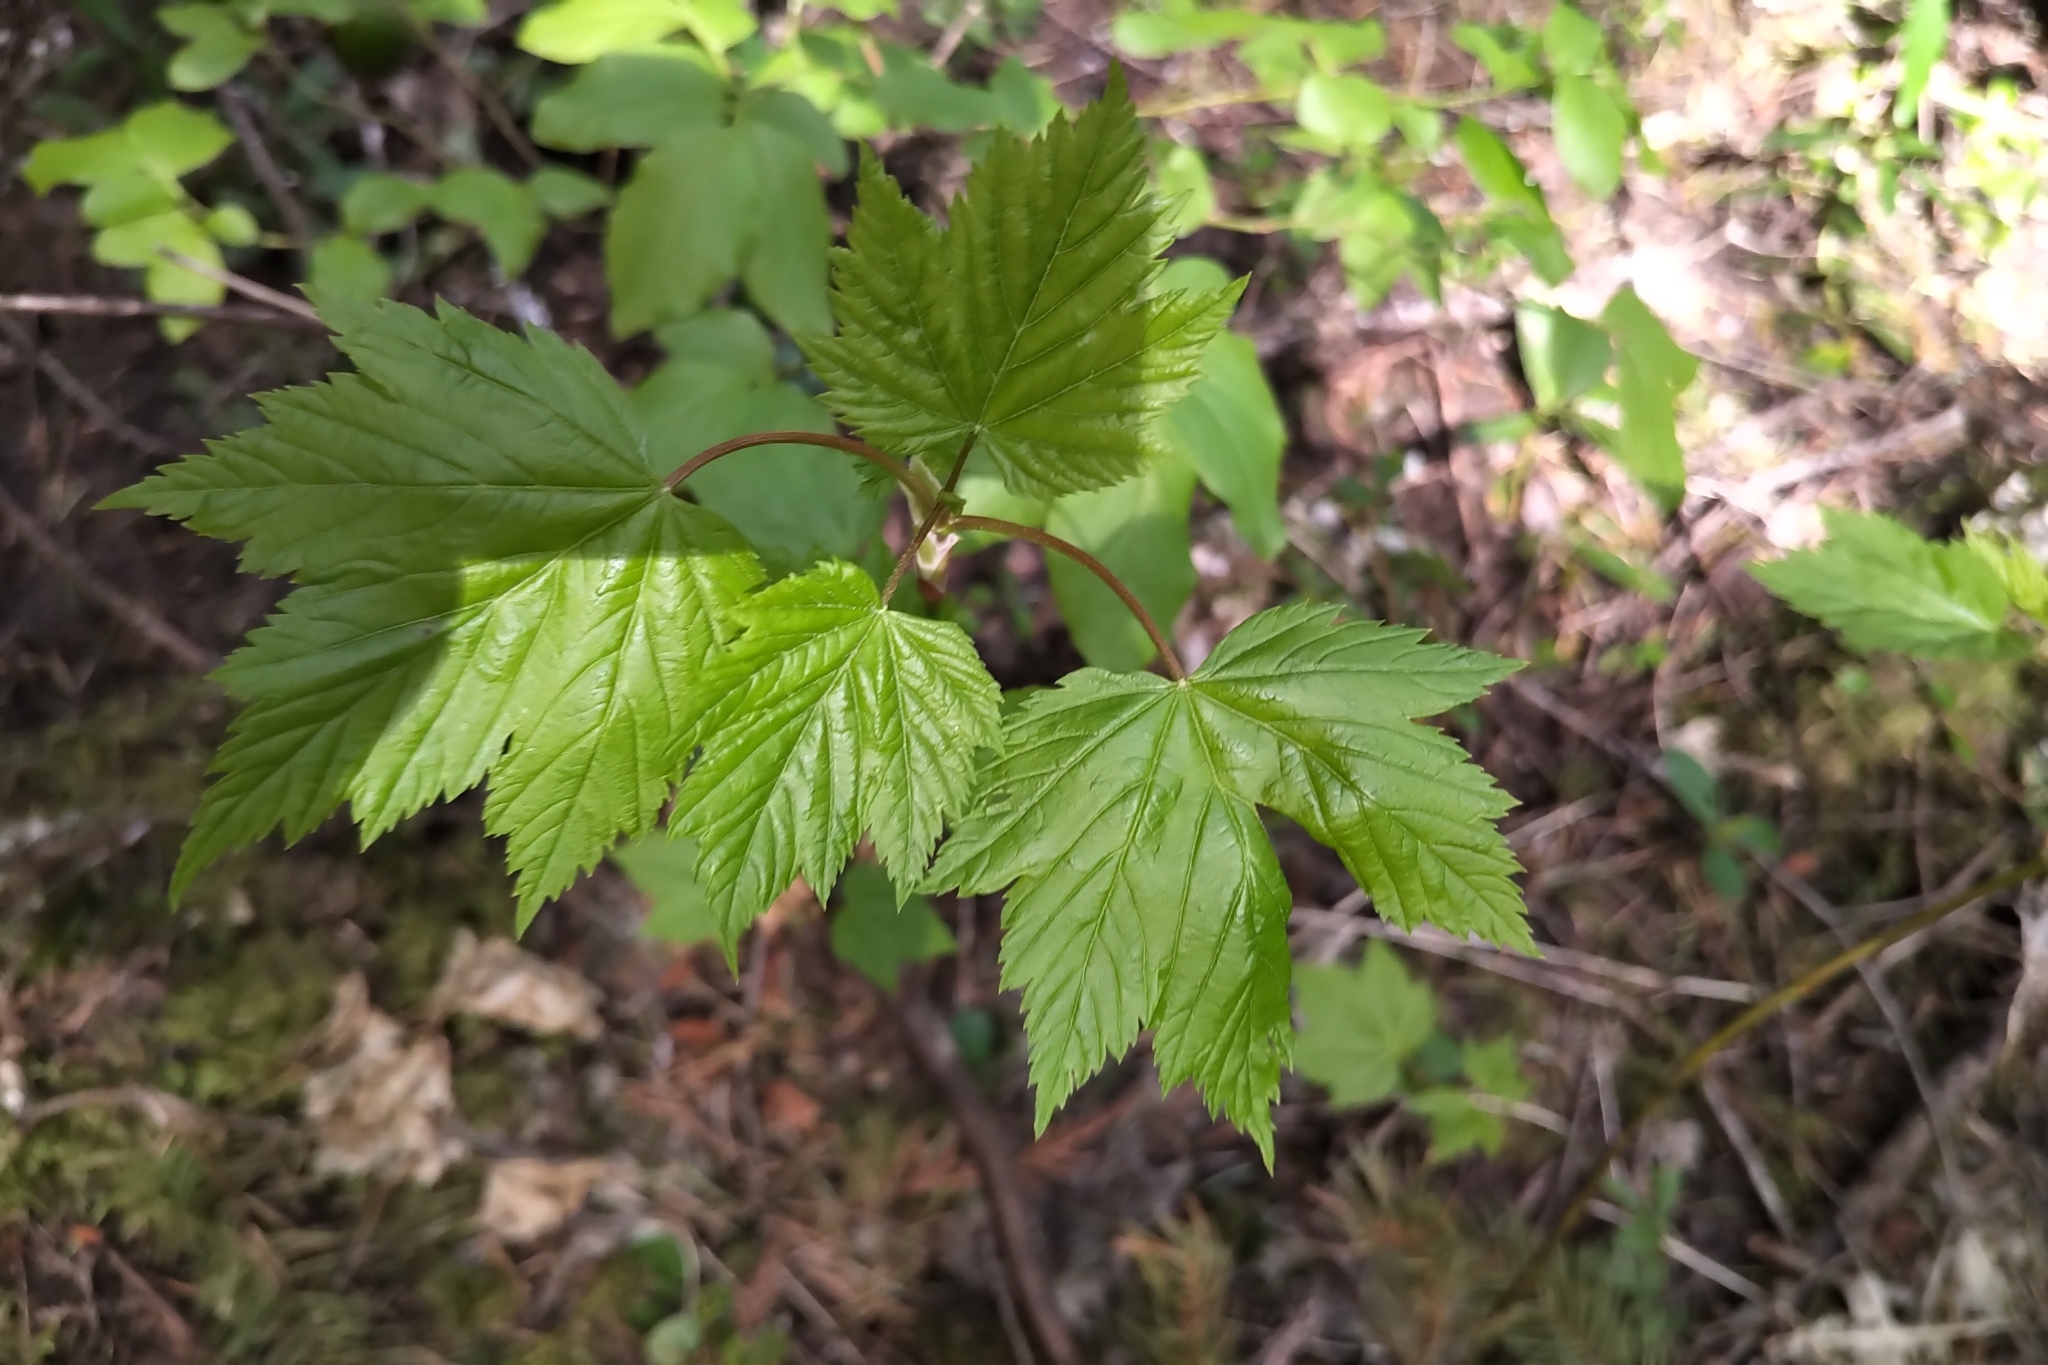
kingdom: Plantae
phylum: Tracheophyta
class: Magnoliopsida
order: Sapindales
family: Sapindaceae
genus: Acer
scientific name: Acer glabrum
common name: Rocky mountain maple
